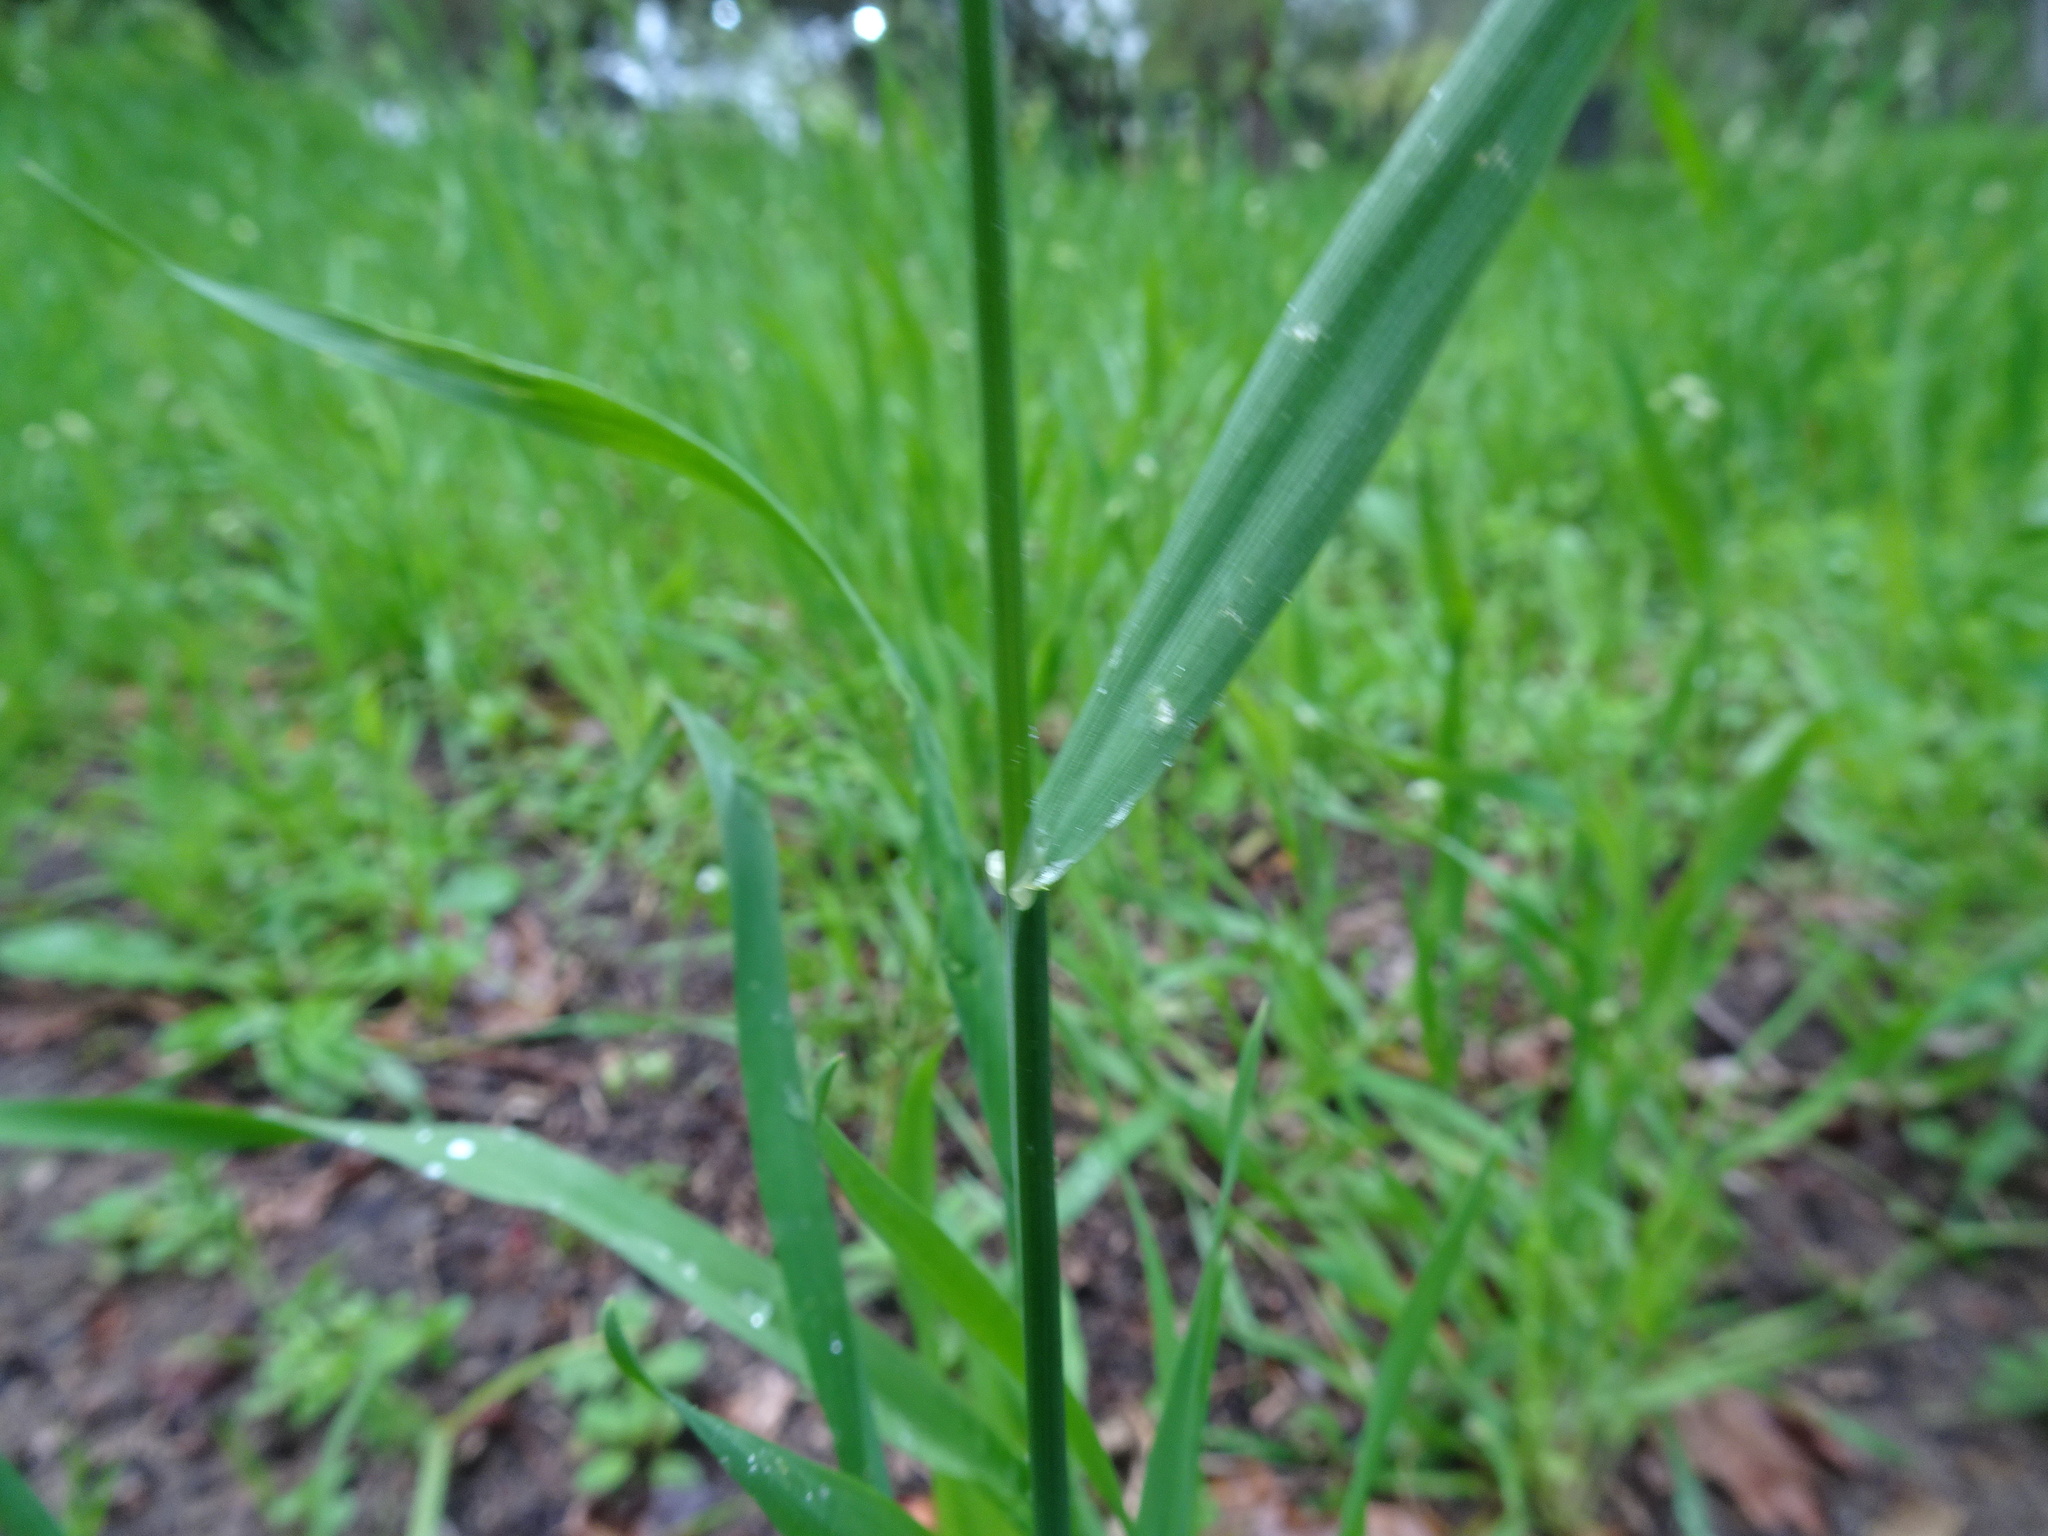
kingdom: Plantae
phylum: Tracheophyta
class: Liliopsida
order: Poales
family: Poaceae
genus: Briza
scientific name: Briza maxima
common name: Big quakinggrass
